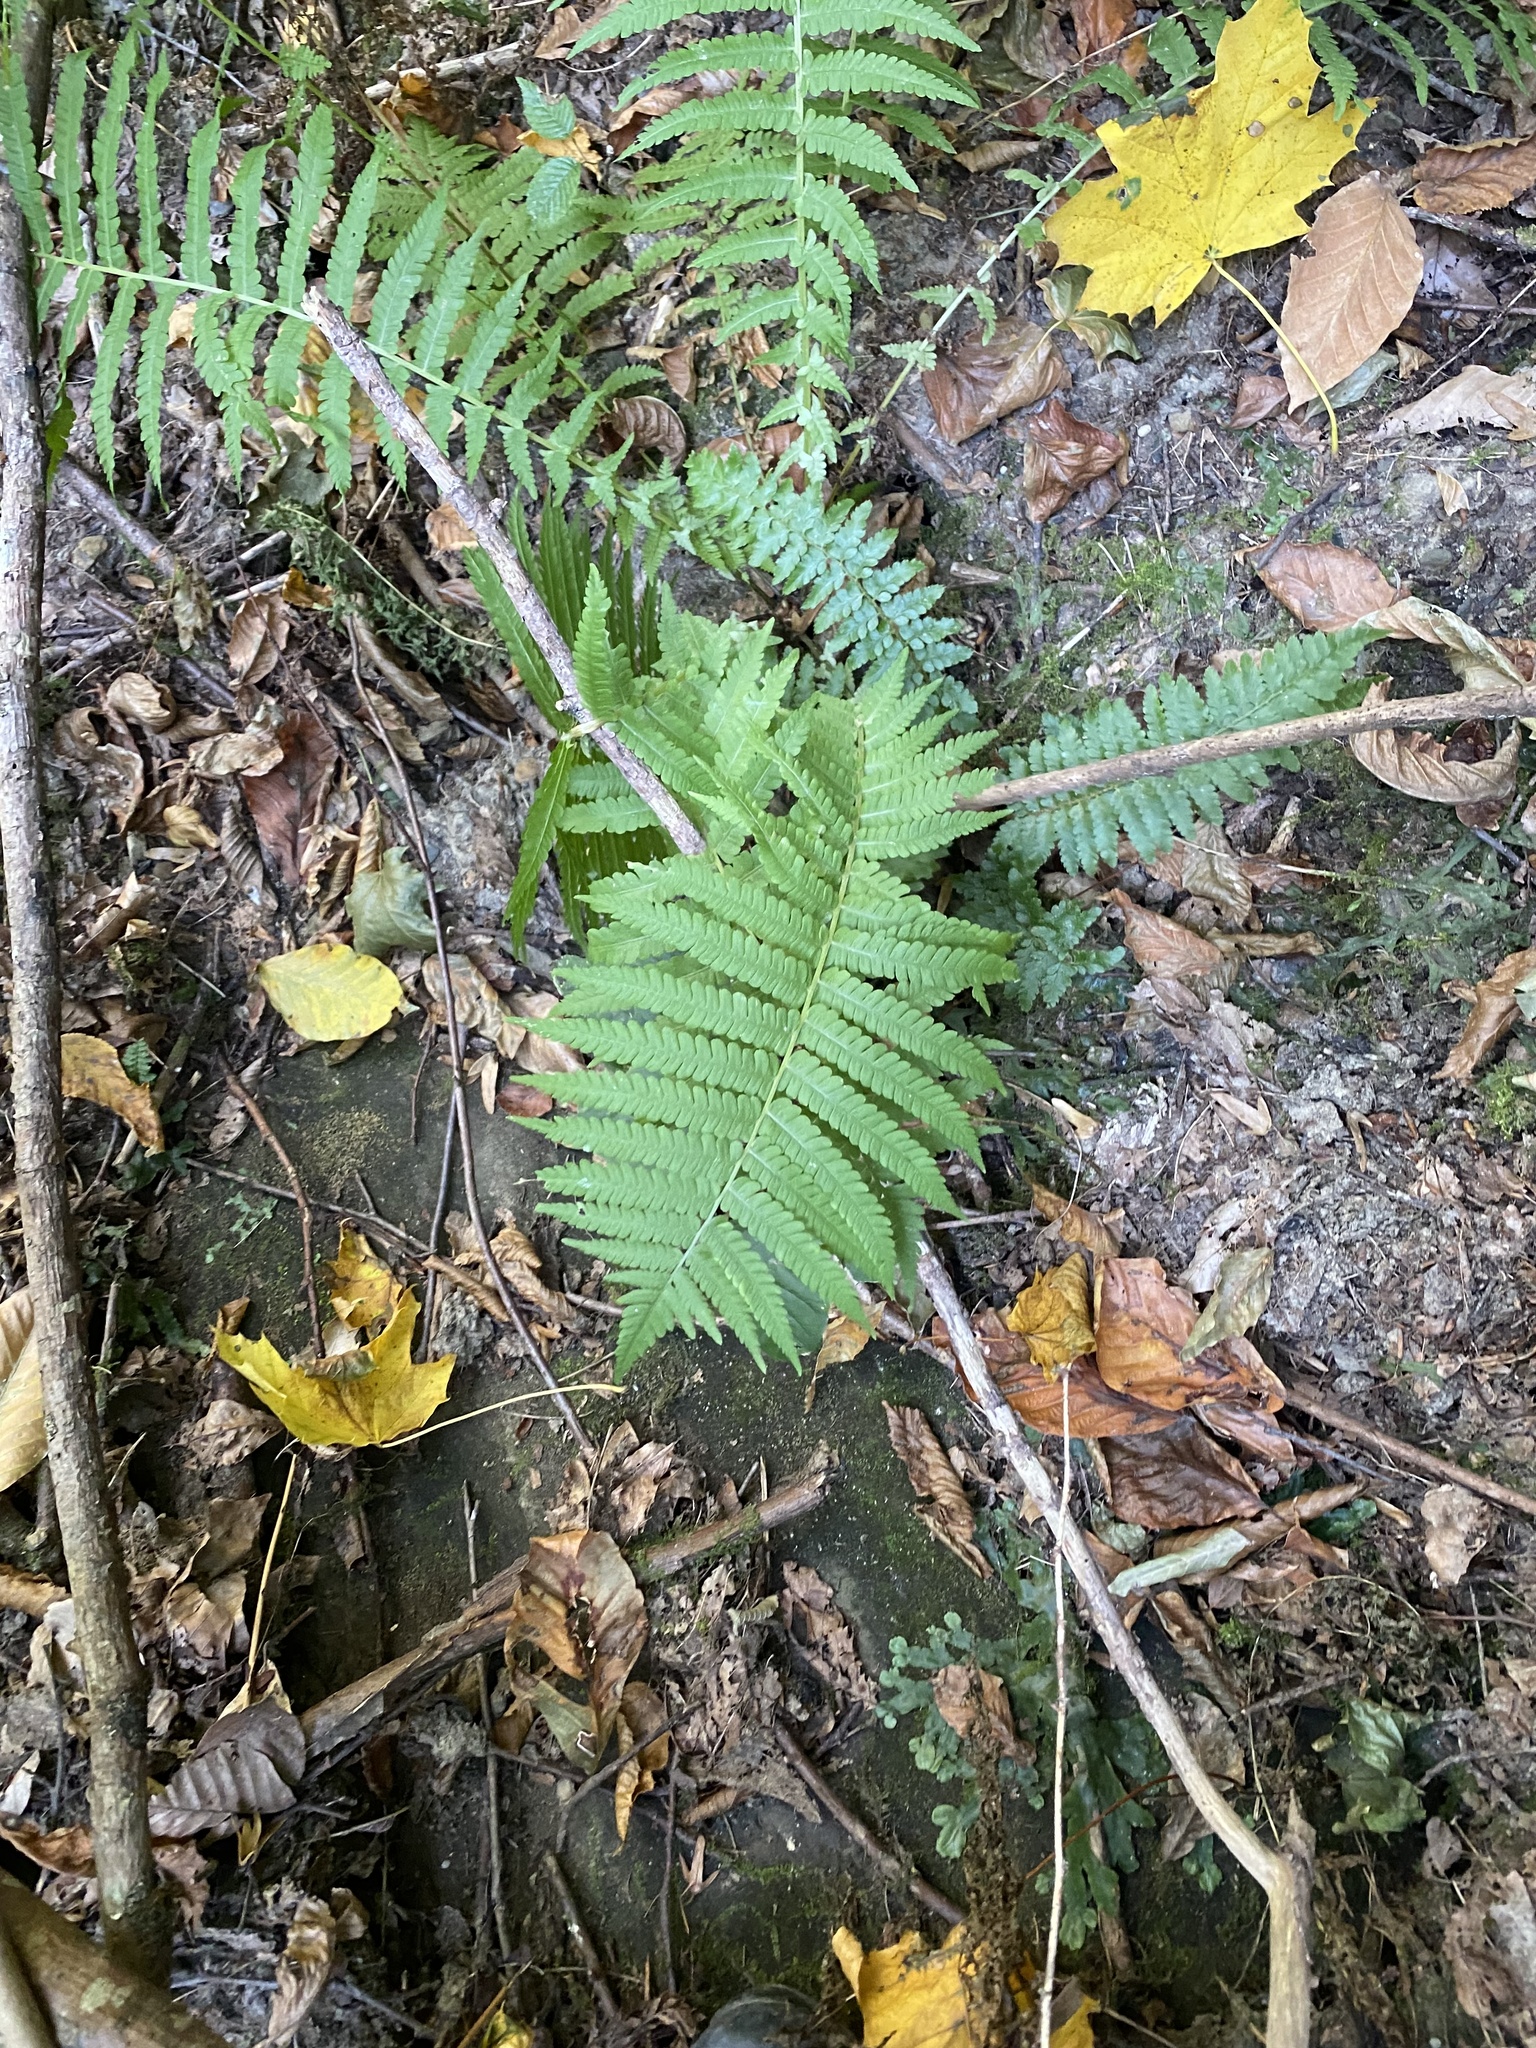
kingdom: Plantae
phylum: Tracheophyta
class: Polypodiopsida
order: Polypodiales
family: Onocleaceae
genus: Matteuccia
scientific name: Matteuccia struthiopteris
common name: Ostrich fern
